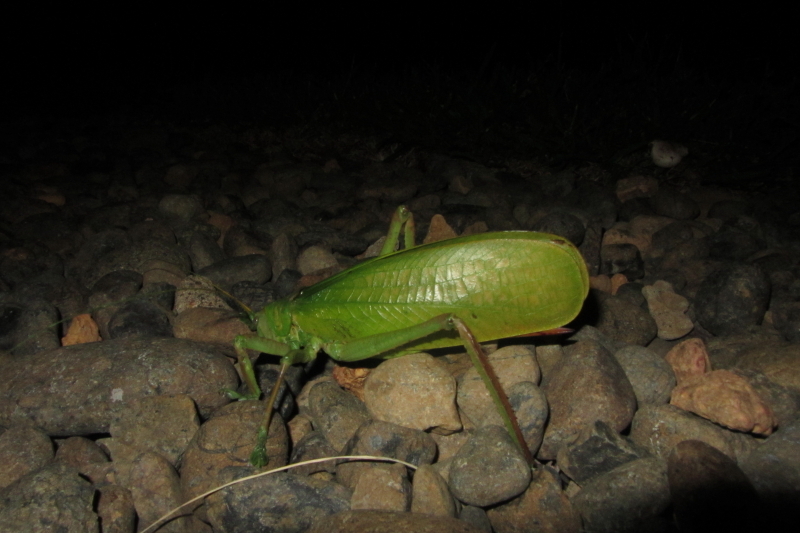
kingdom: Animalia
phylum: Arthropoda
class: Insecta
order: Orthoptera
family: Tettigoniidae
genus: Pseudophyllanax
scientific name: Pseudophyllanax imperialis
